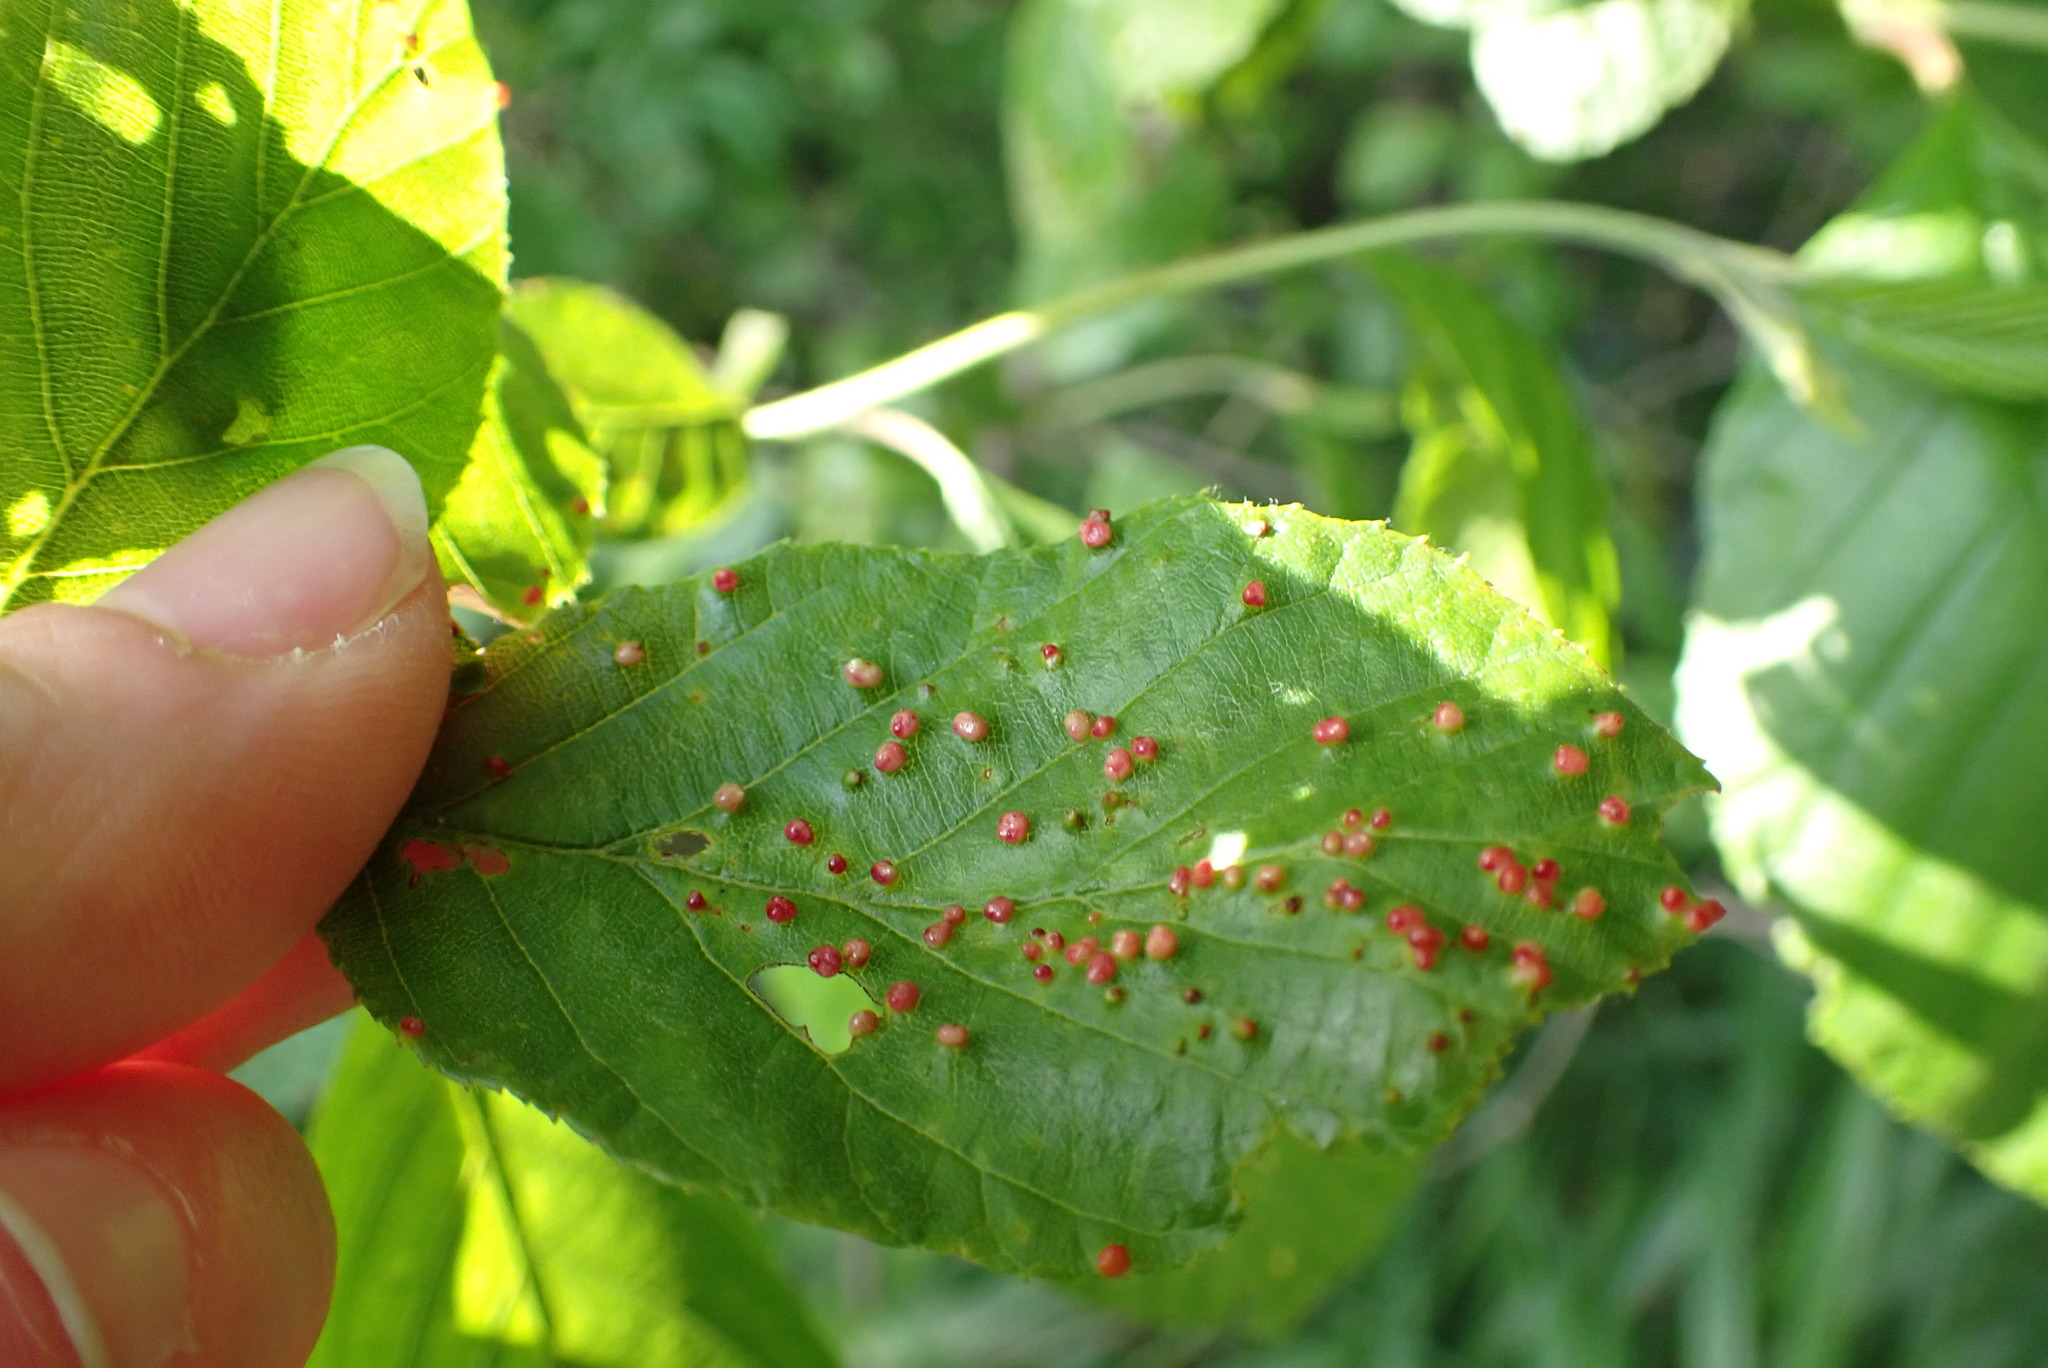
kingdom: Animalia
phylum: Arthropoda
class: Arachnida
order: Trombidiformes
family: Eriophyidae
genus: Eriophyes
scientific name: Eriophyes laevis
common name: Alder leaf gall mite
